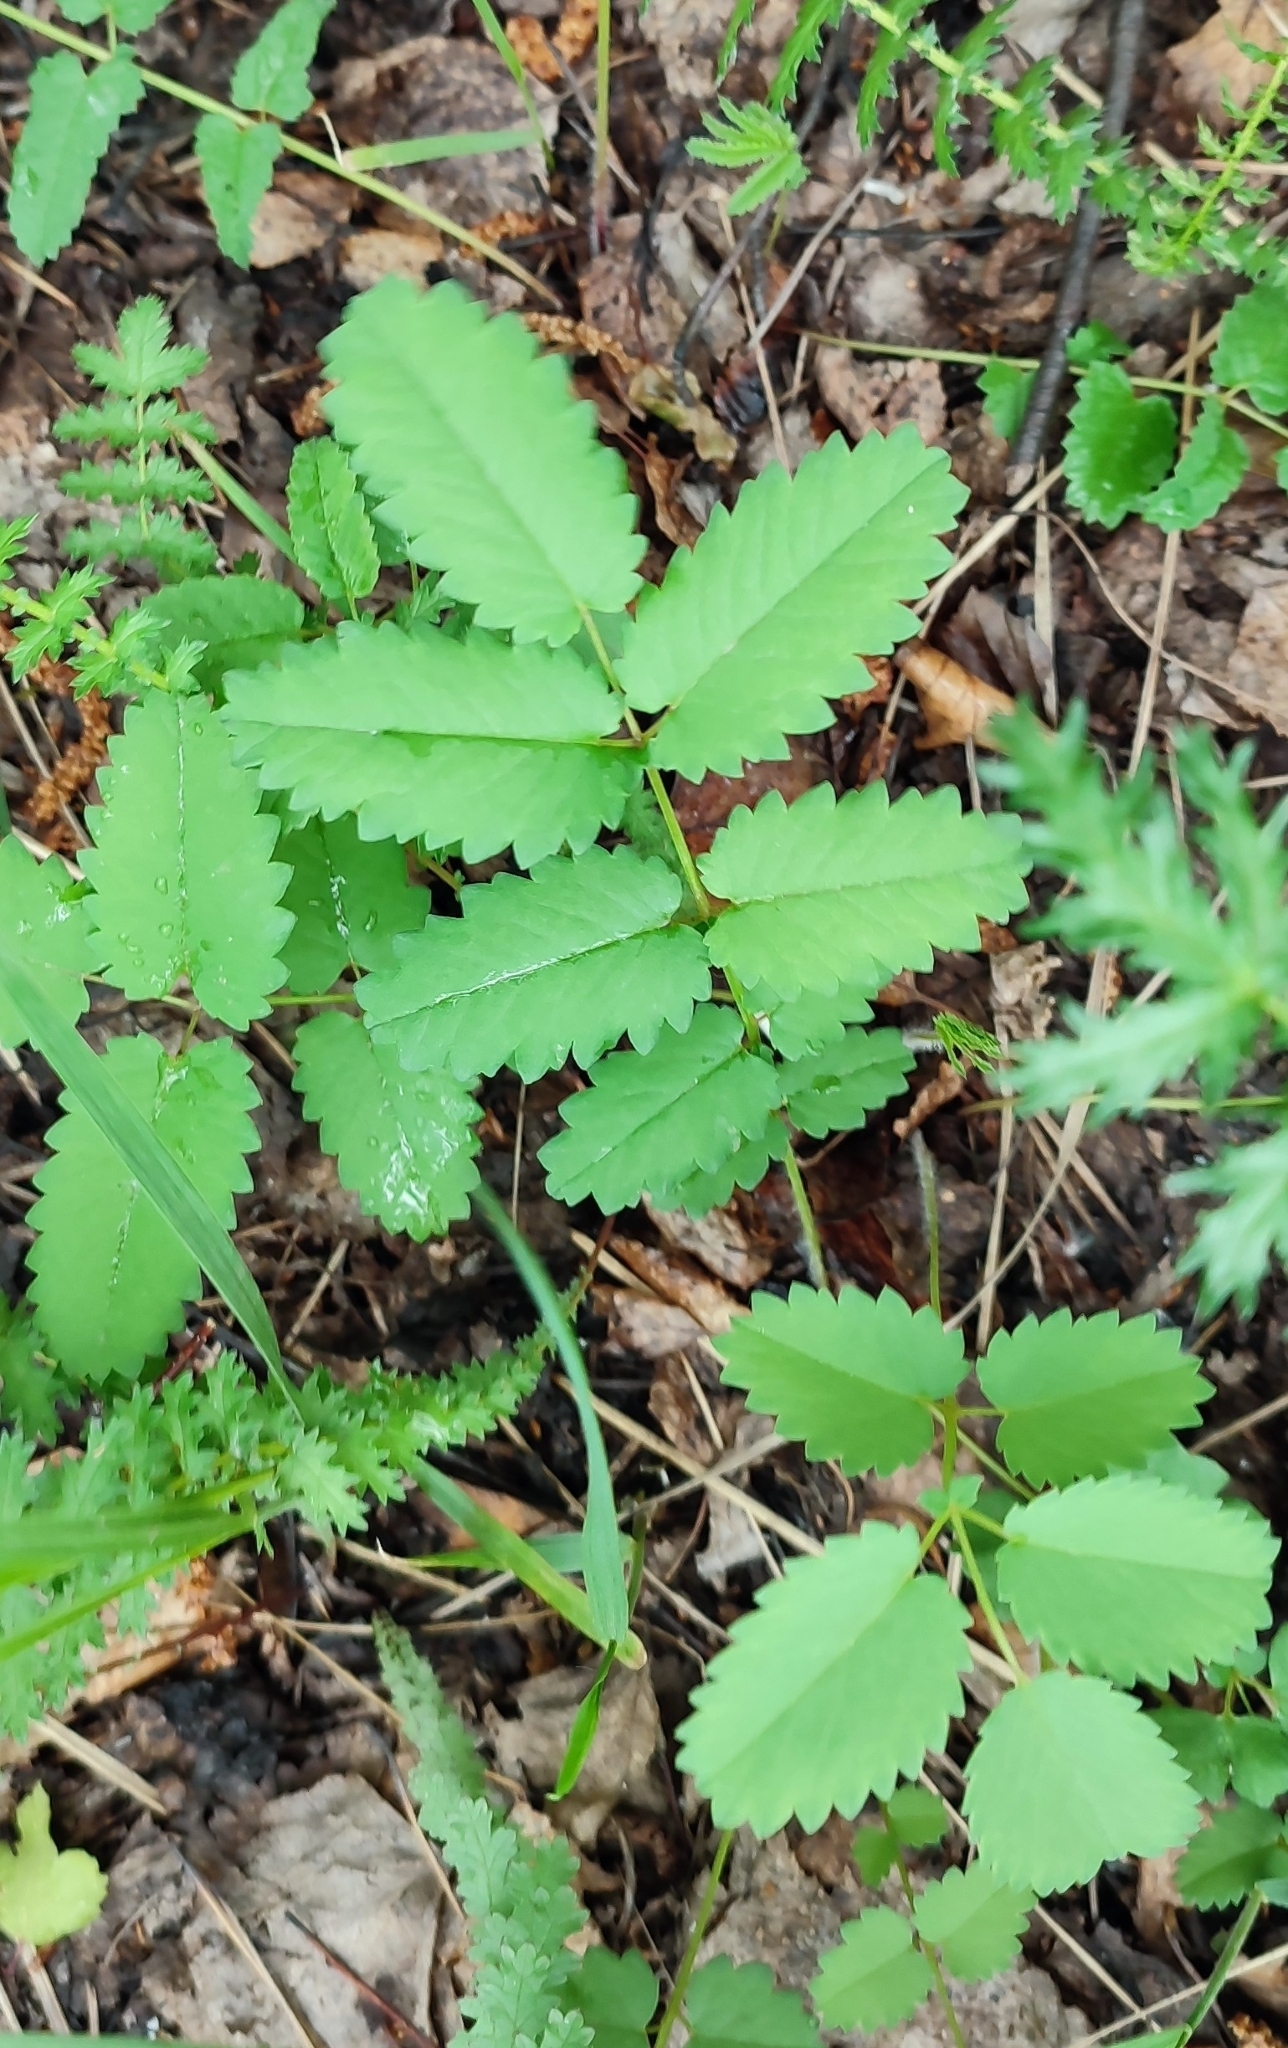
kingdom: Plantae
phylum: Tracheophyta
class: Magnoliopsida
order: Rosales
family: Rosaceae
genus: Sanguisorba
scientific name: Sanguisorba officinalis
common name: Great burnet
